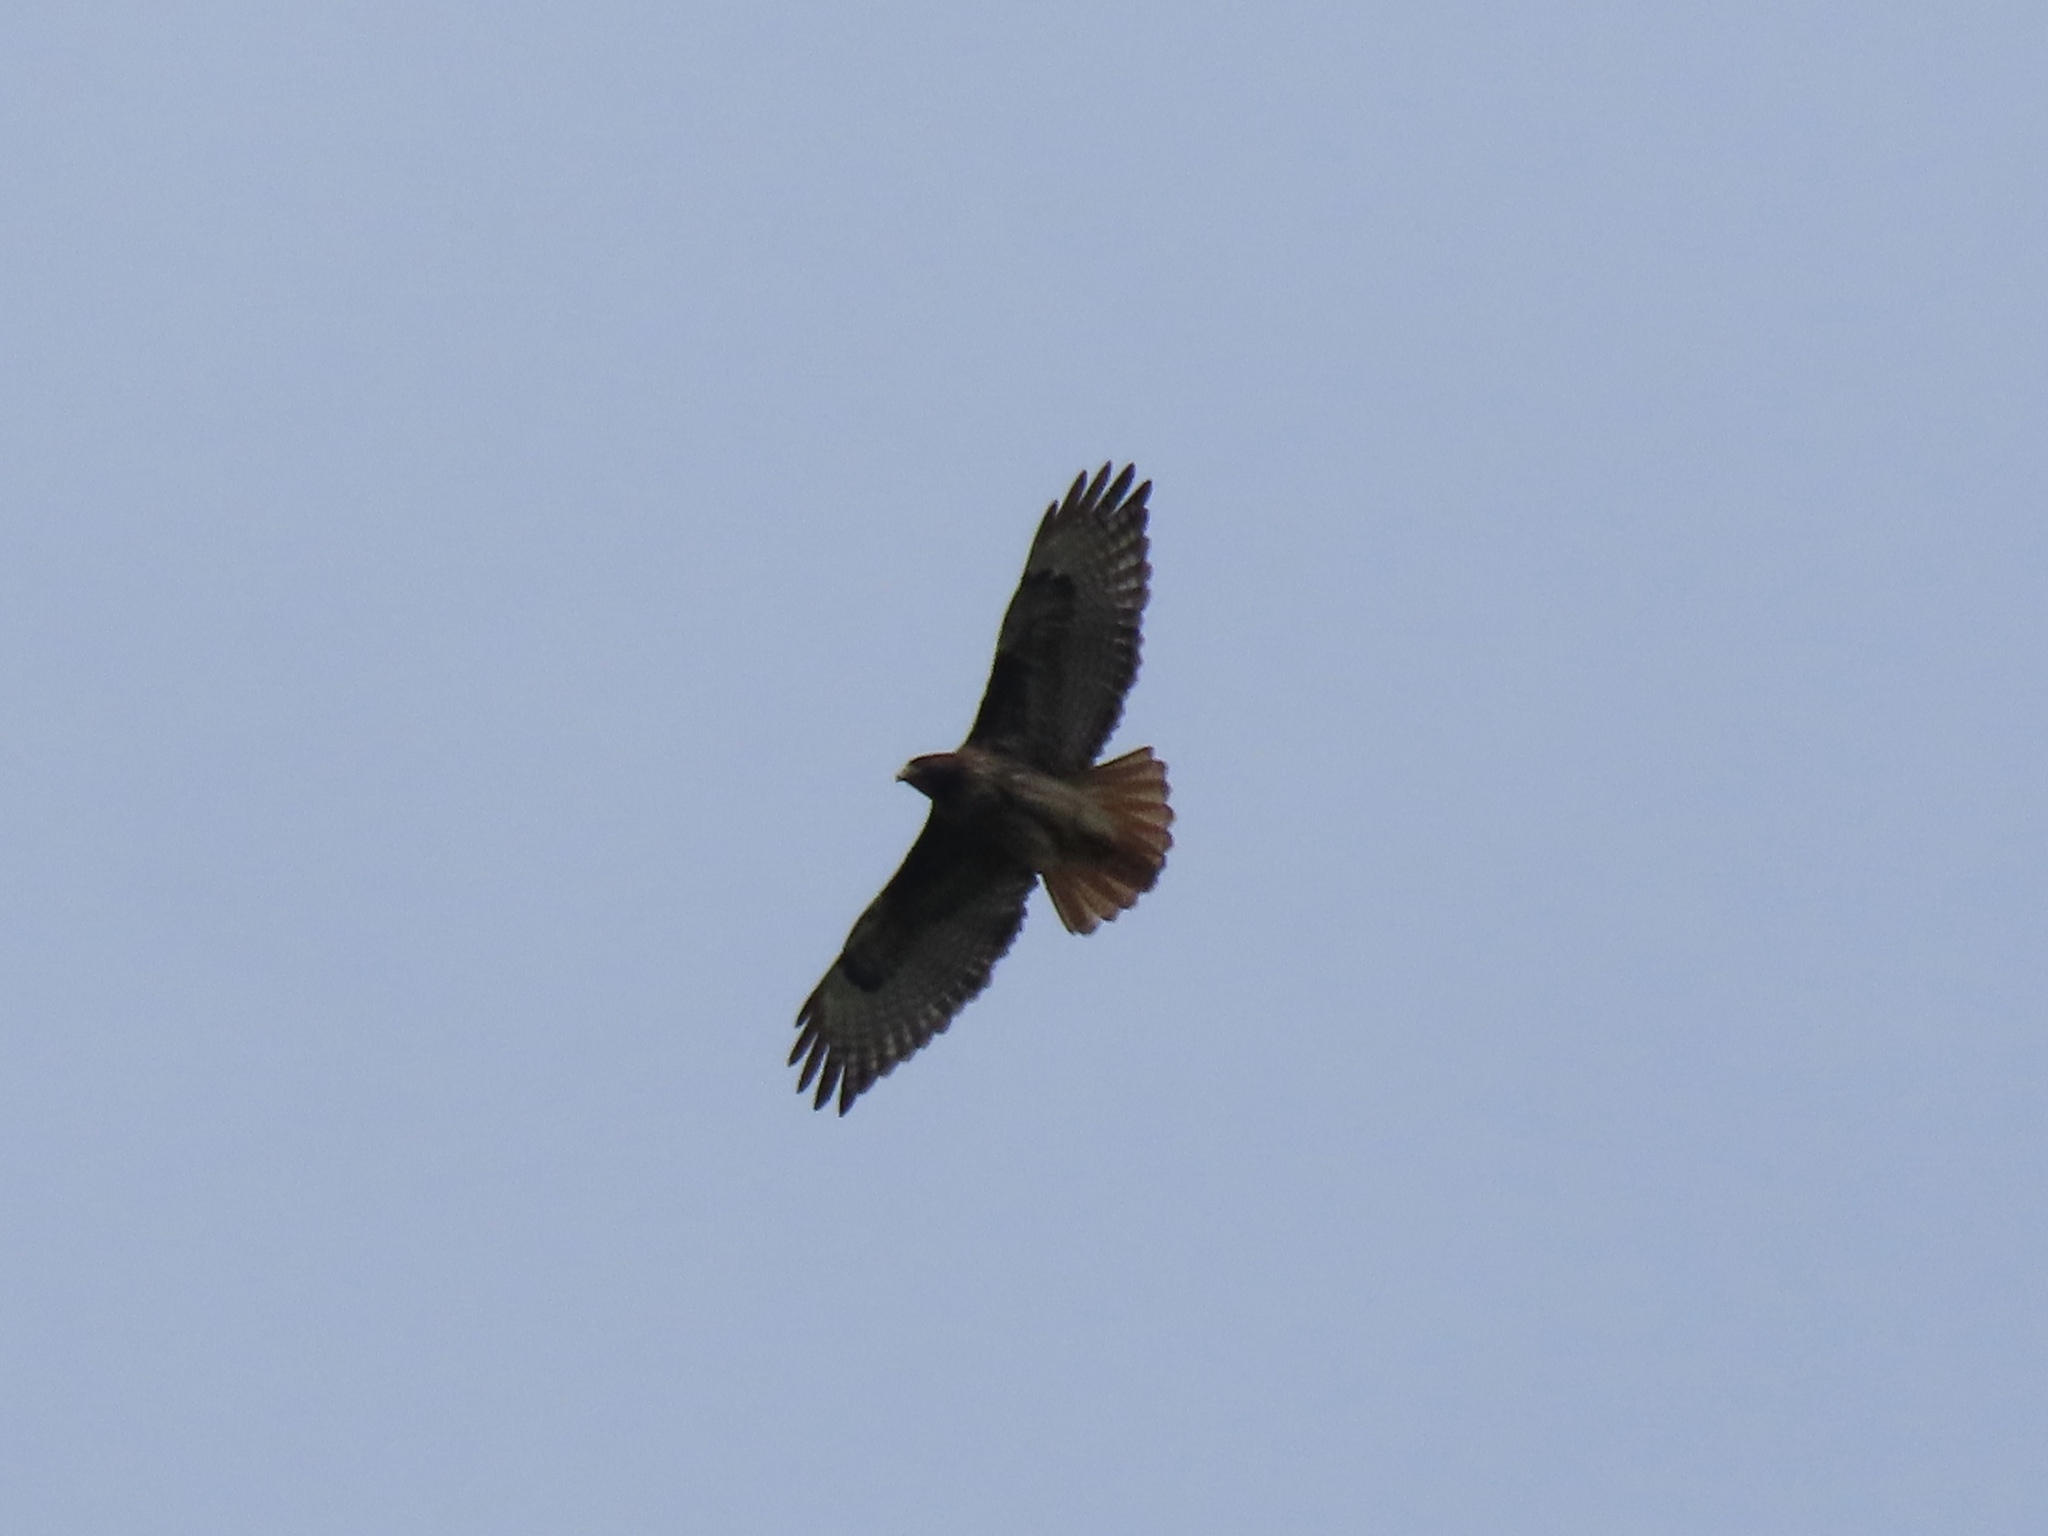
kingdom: Animalia
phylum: Chordata
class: Aves
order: Accipitriformes
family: Accipitridae
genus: Buteo
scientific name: Buteo jamaicensis
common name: Red-tailed hawk
